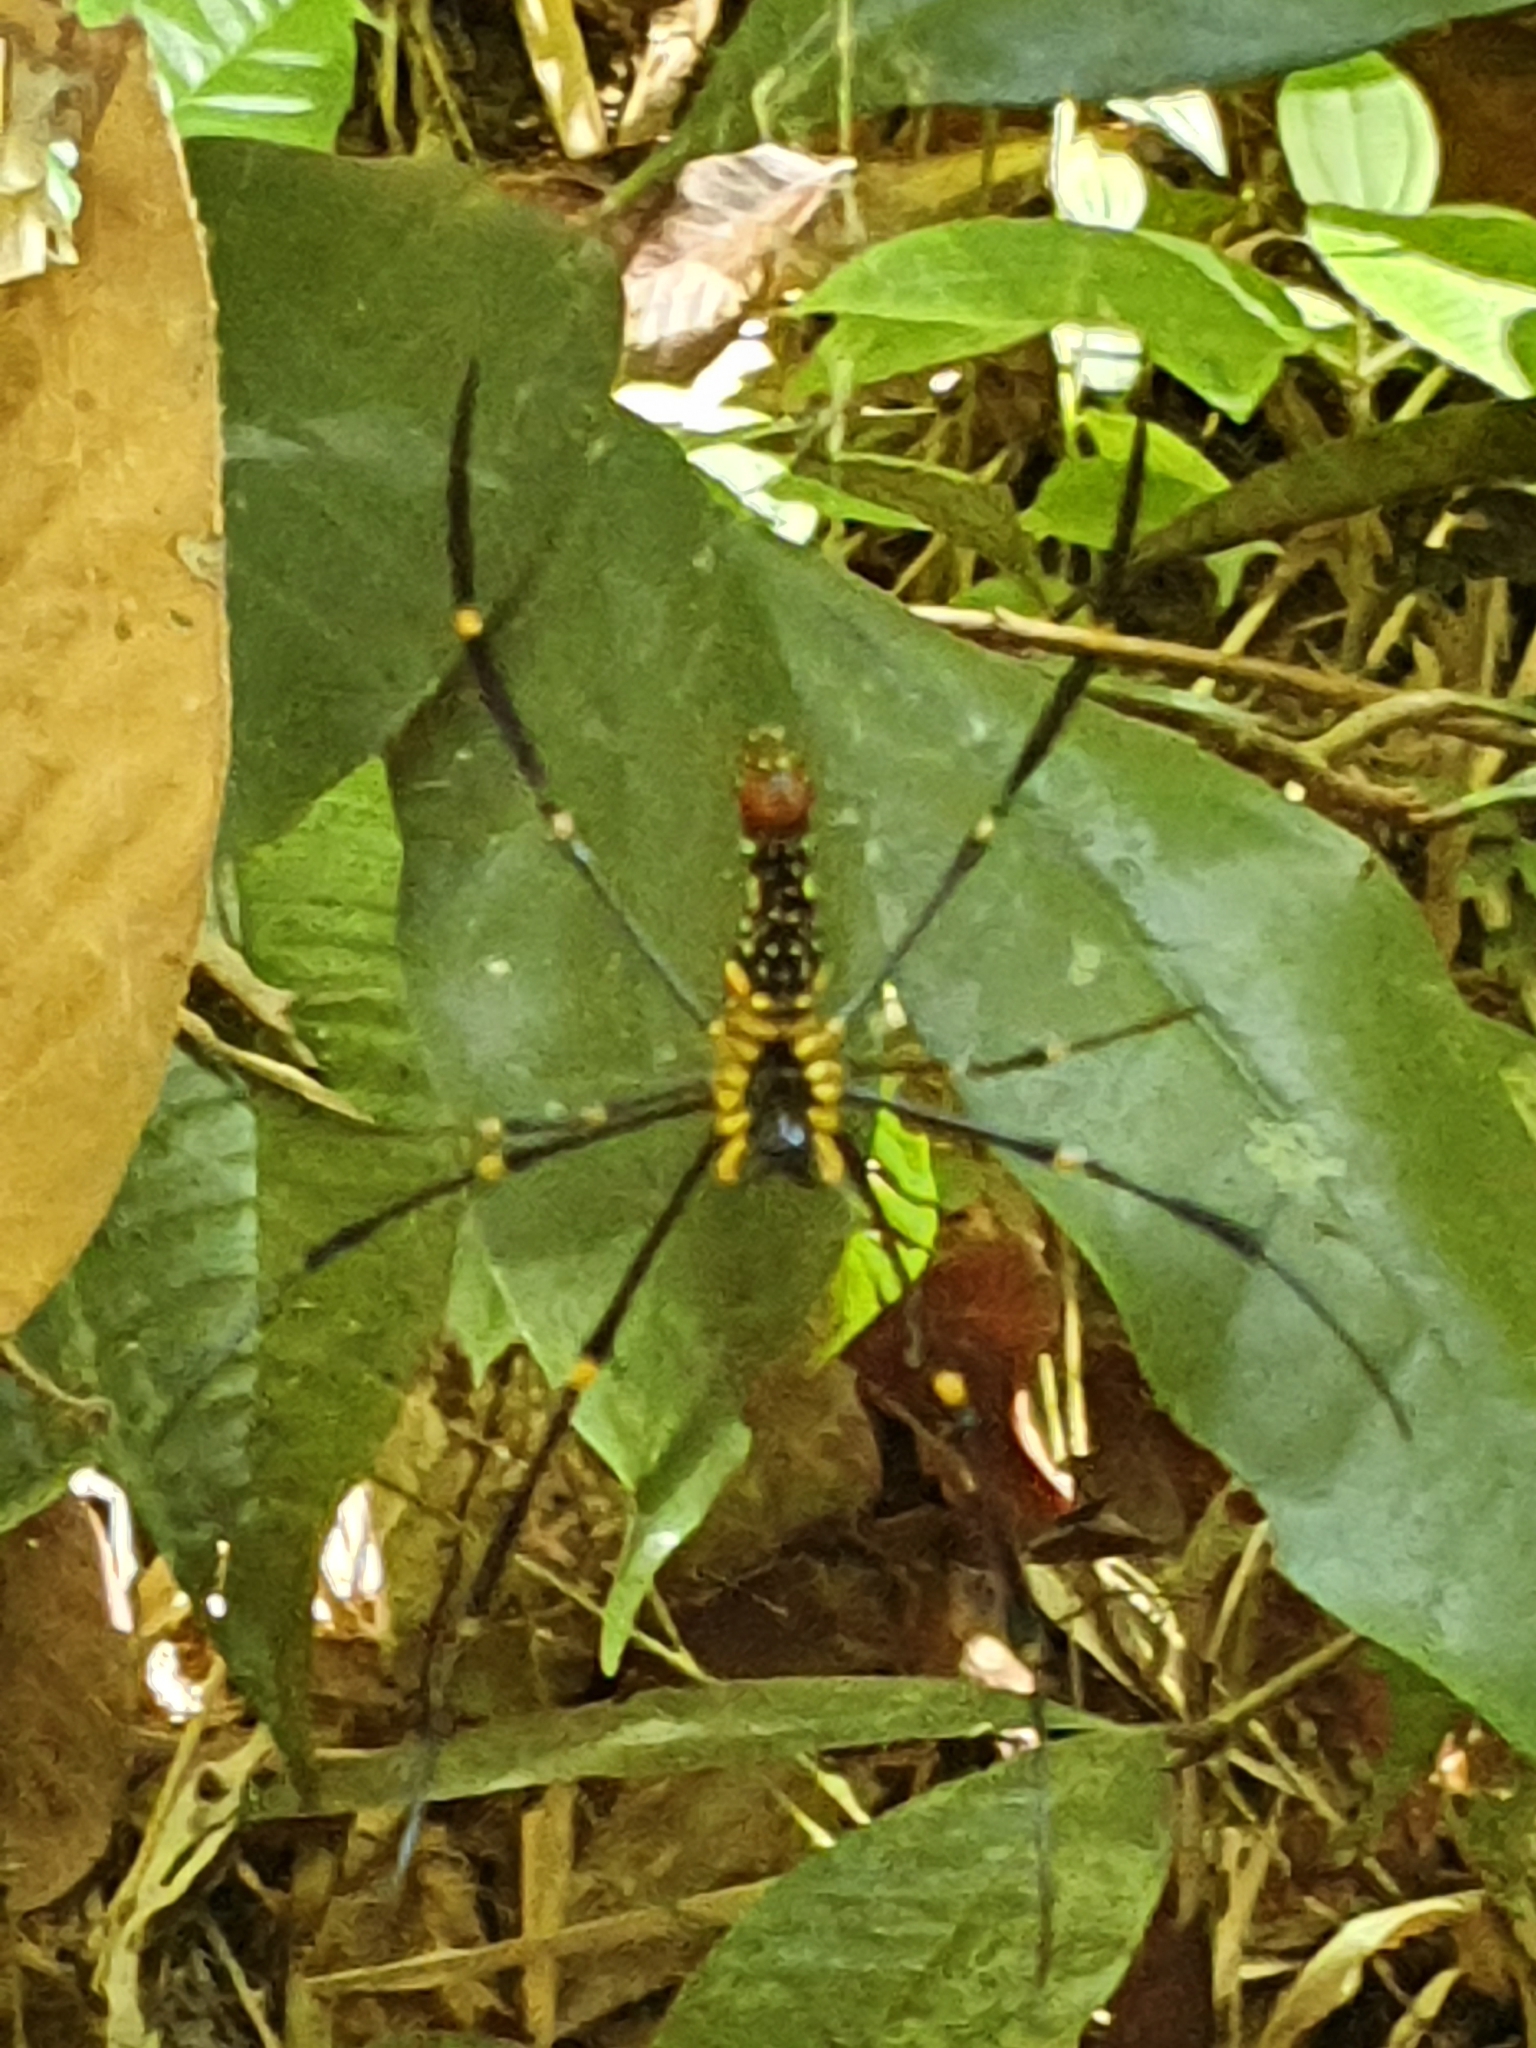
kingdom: Animalia
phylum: Arthropoda
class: Arachnida
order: Araneae
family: Araneidae
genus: Nephila
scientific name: Nephila pilipes
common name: Giant golden orb weaver
